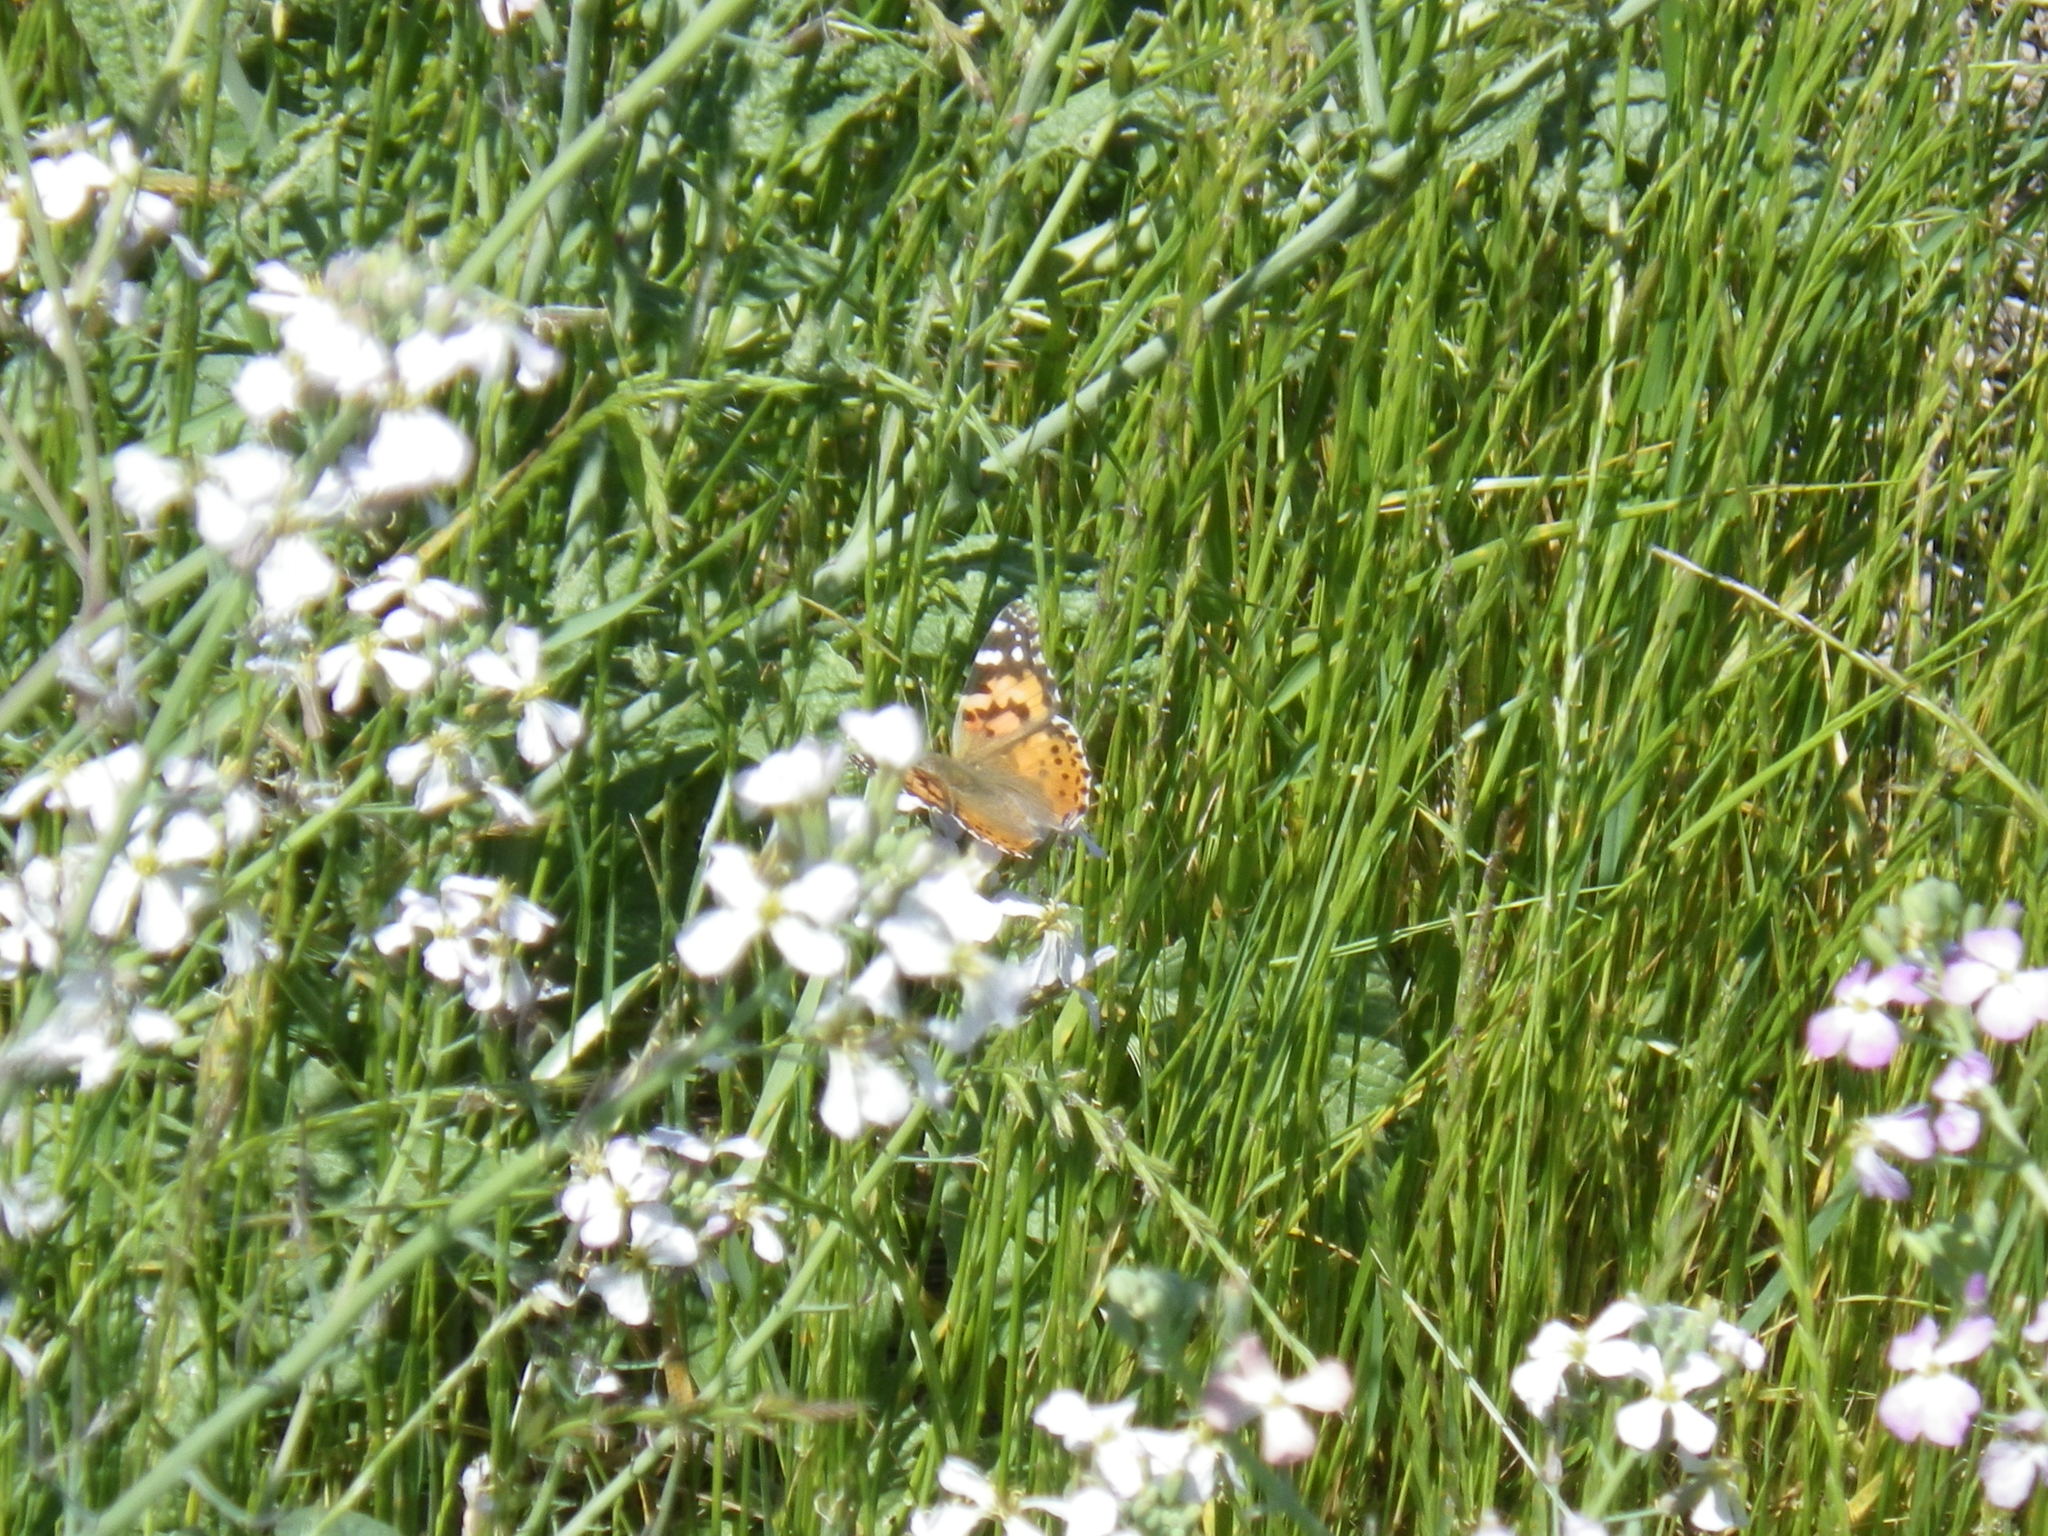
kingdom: Animalia
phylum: Arthropoda
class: Insecta
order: Lepidoptera
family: Nymphalidae
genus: Vanessa
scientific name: Vanessa cardui
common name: Painted lady
